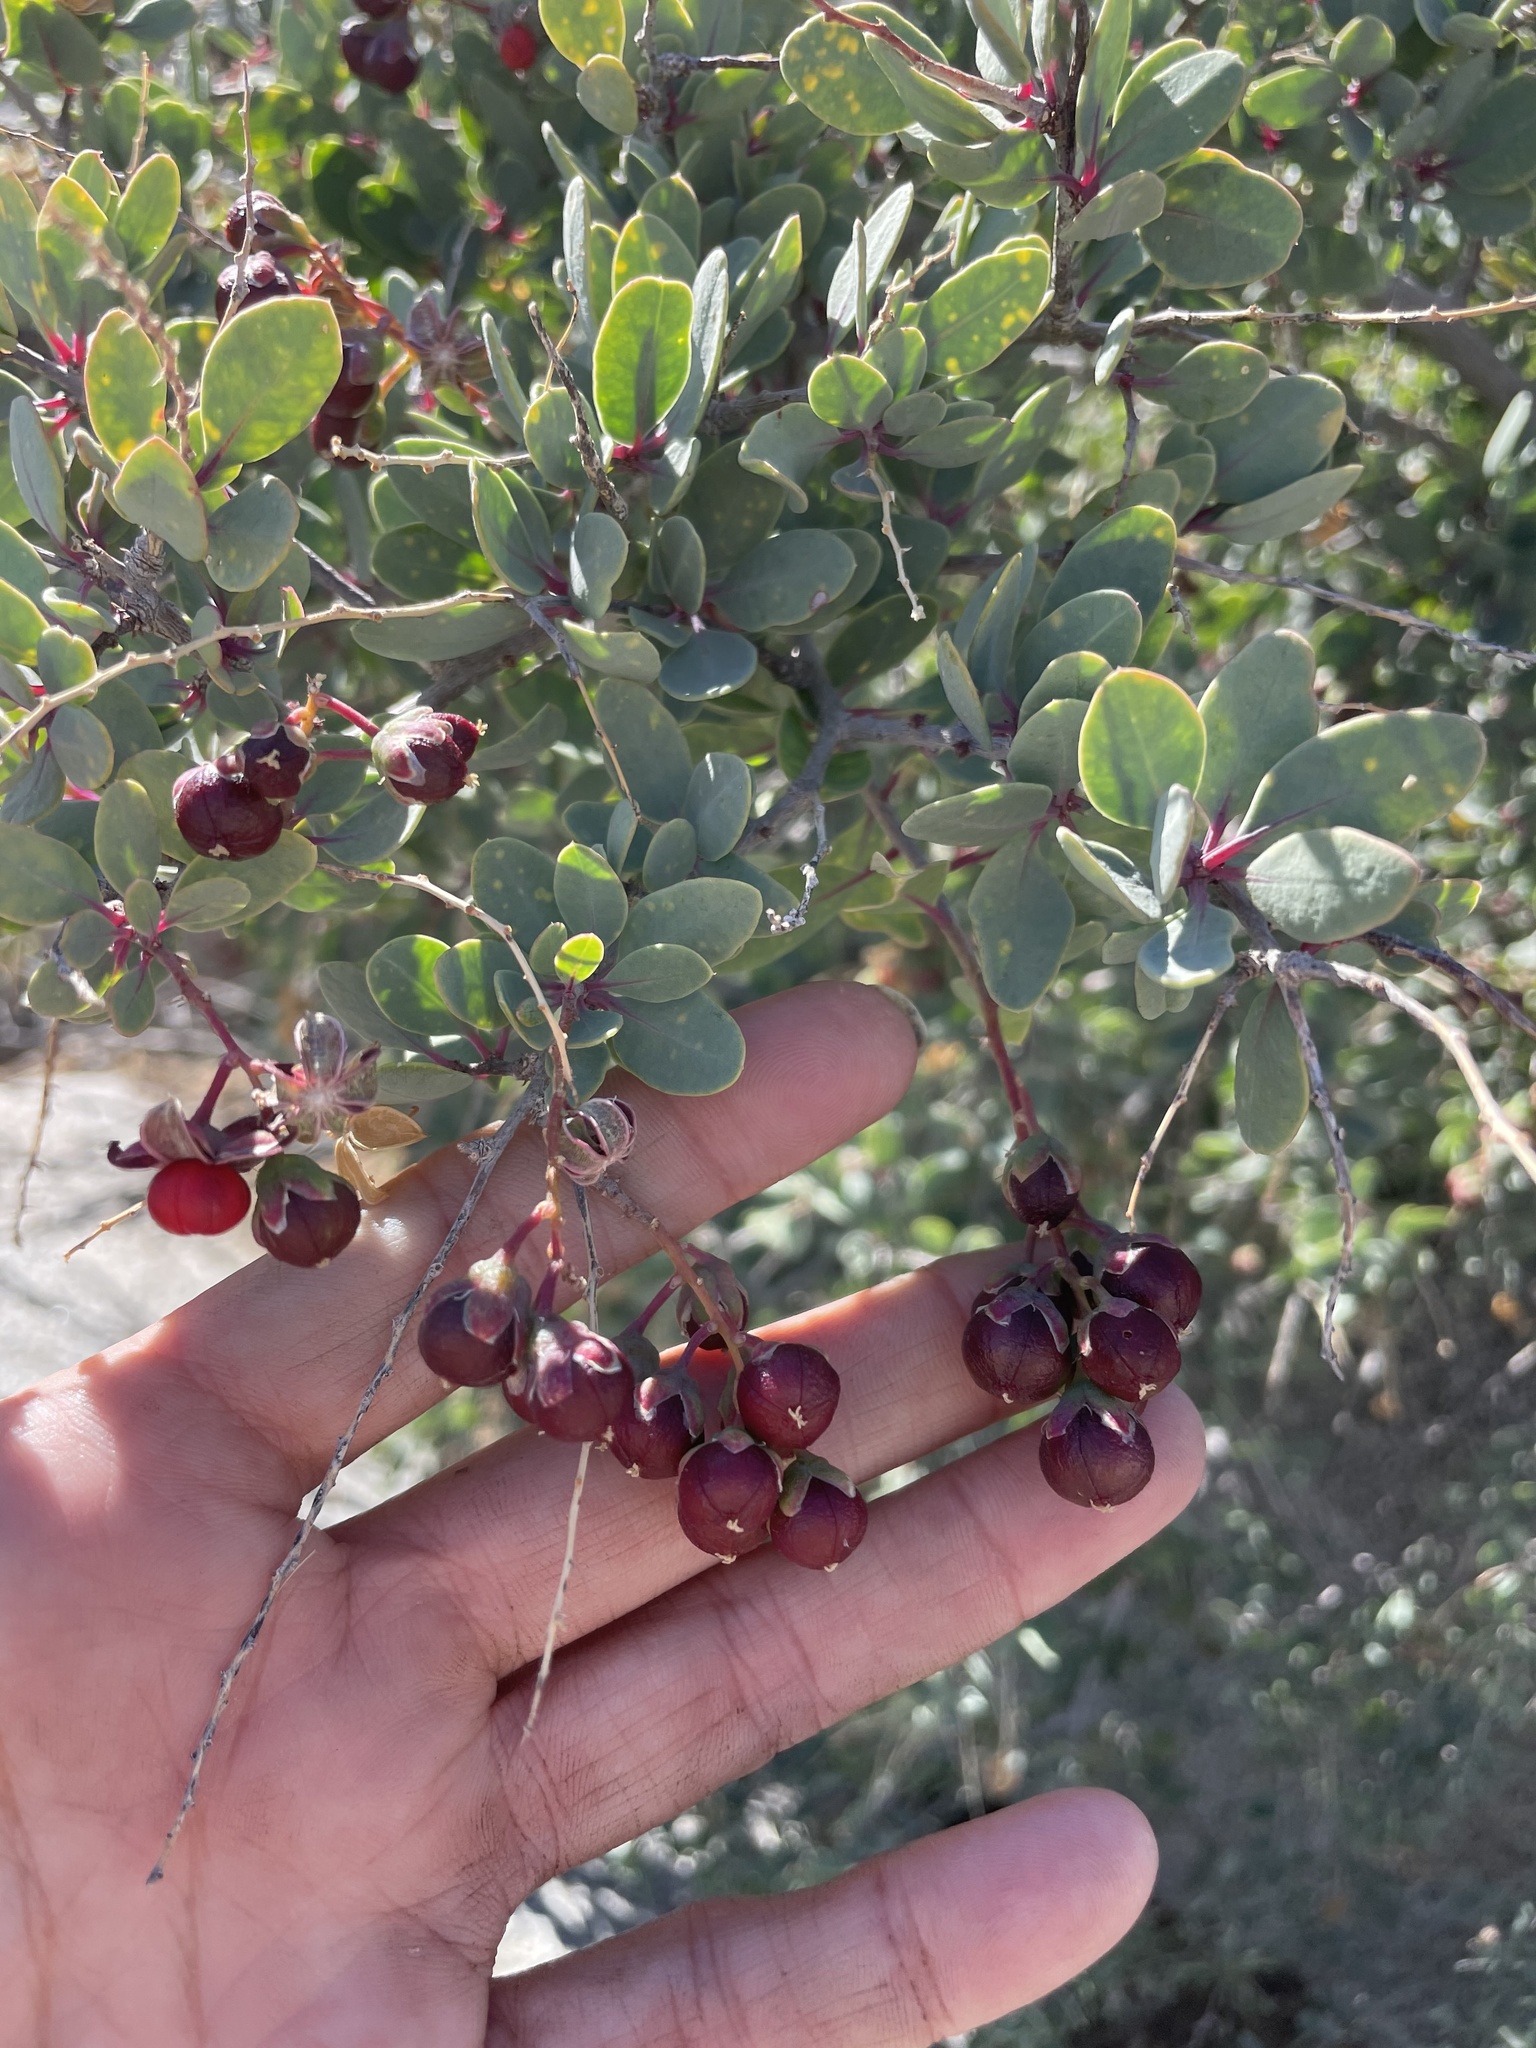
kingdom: Plantae
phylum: Tracheophyta
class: Magnoliopsida
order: Caryophyllales
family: Stegnospermataceae
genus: Stegnosperma
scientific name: Stegnosperma halimifolium
